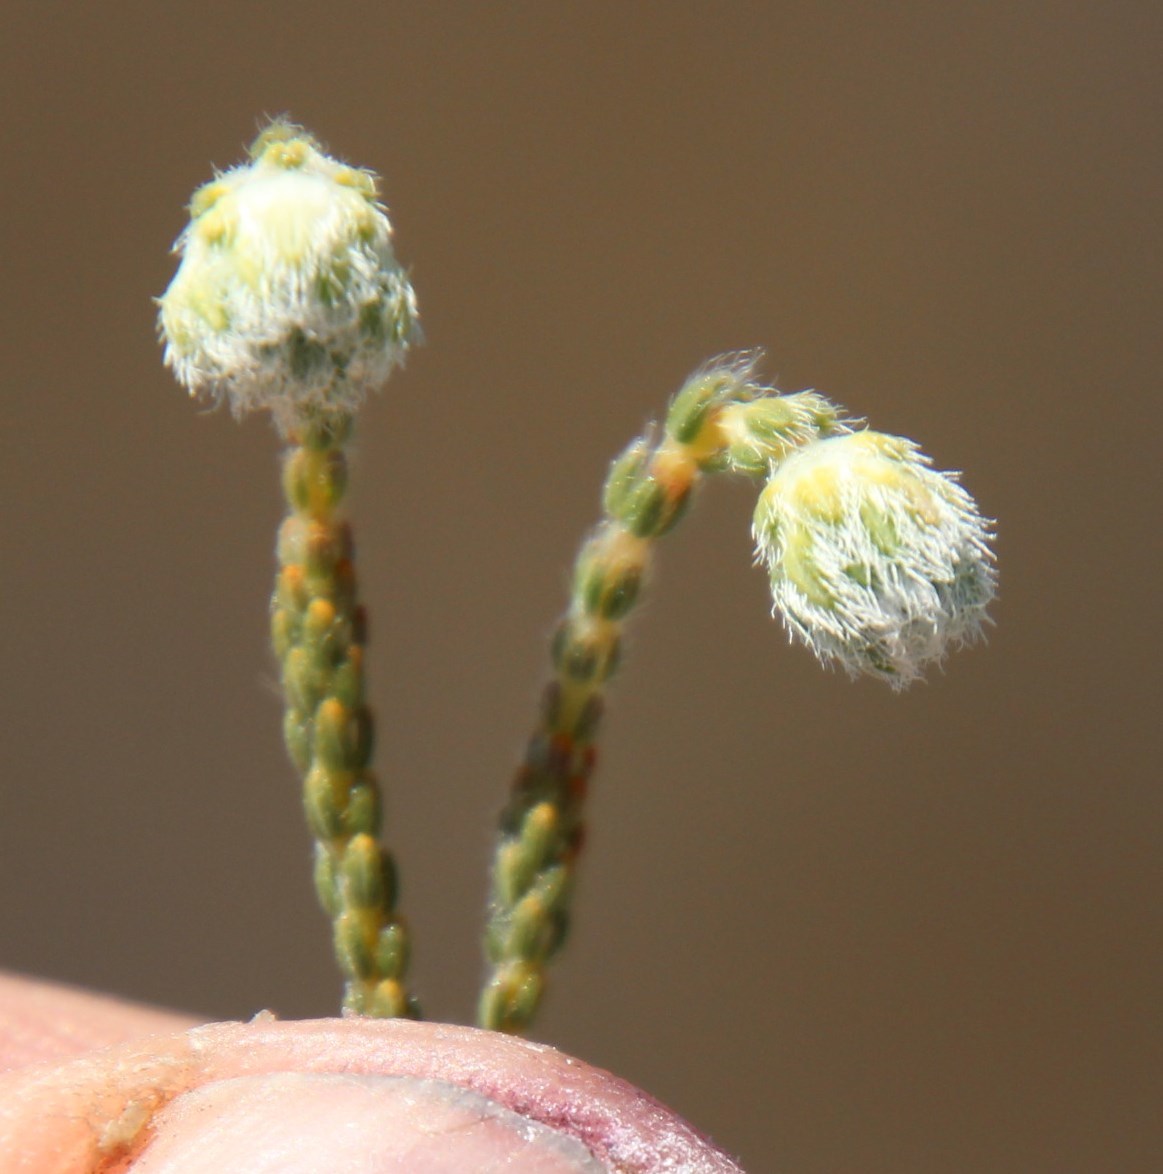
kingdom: Plantae
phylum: Tracheophyta
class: Magnoliopsida
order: Ericales
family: Ericaceae
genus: Erica
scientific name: Erica senilis
